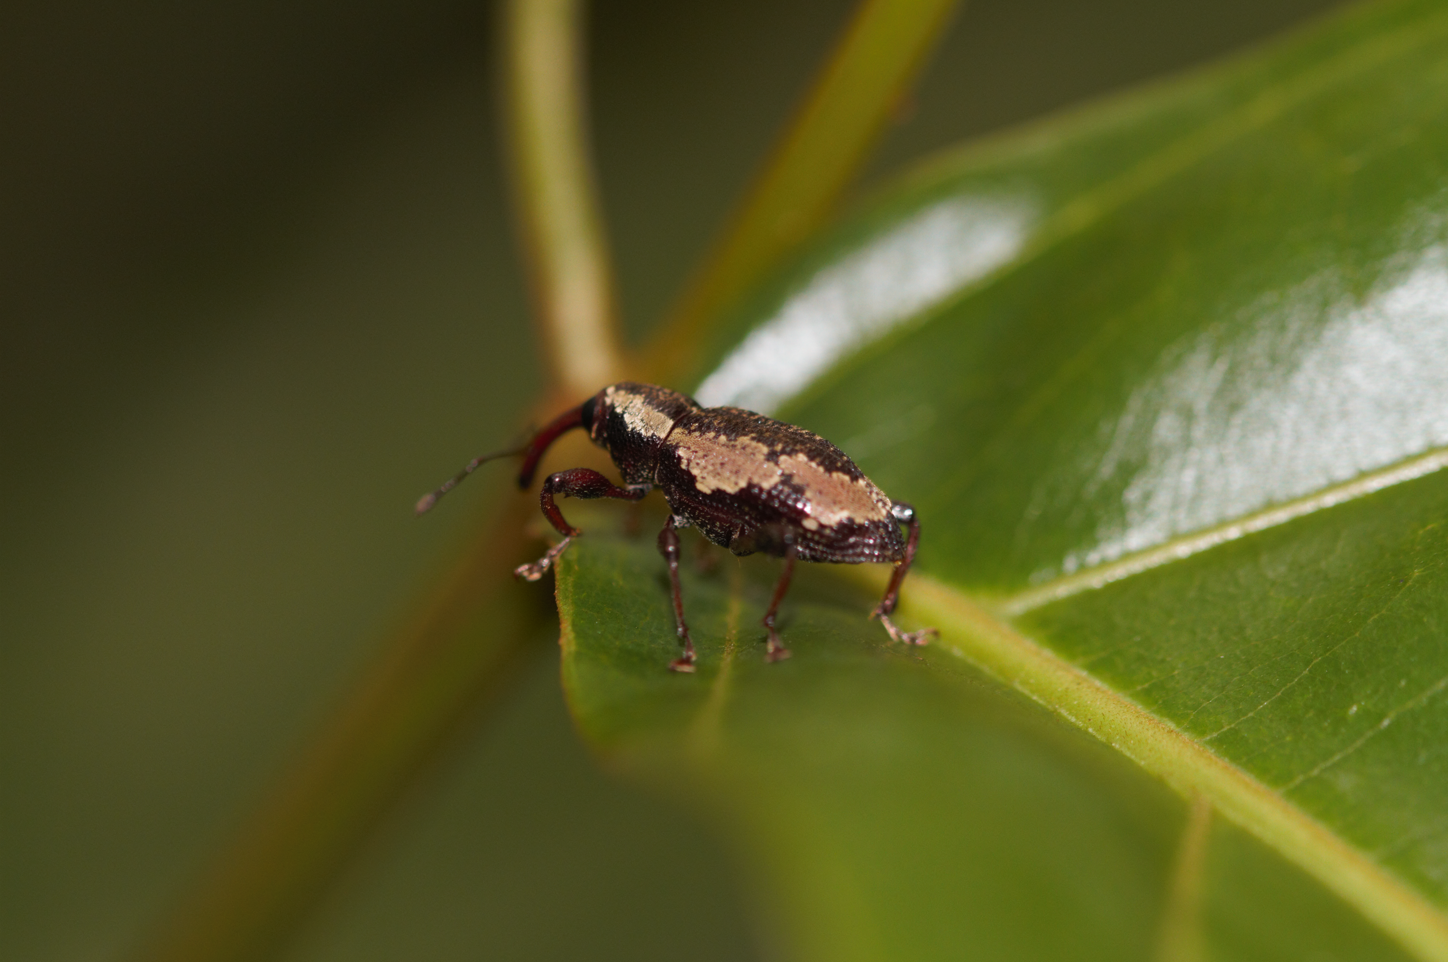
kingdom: Animalia
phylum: Arthropoda
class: Insecta
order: Coleoptera
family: Curculionidae
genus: Heilipodus
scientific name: Heilipodus similis
